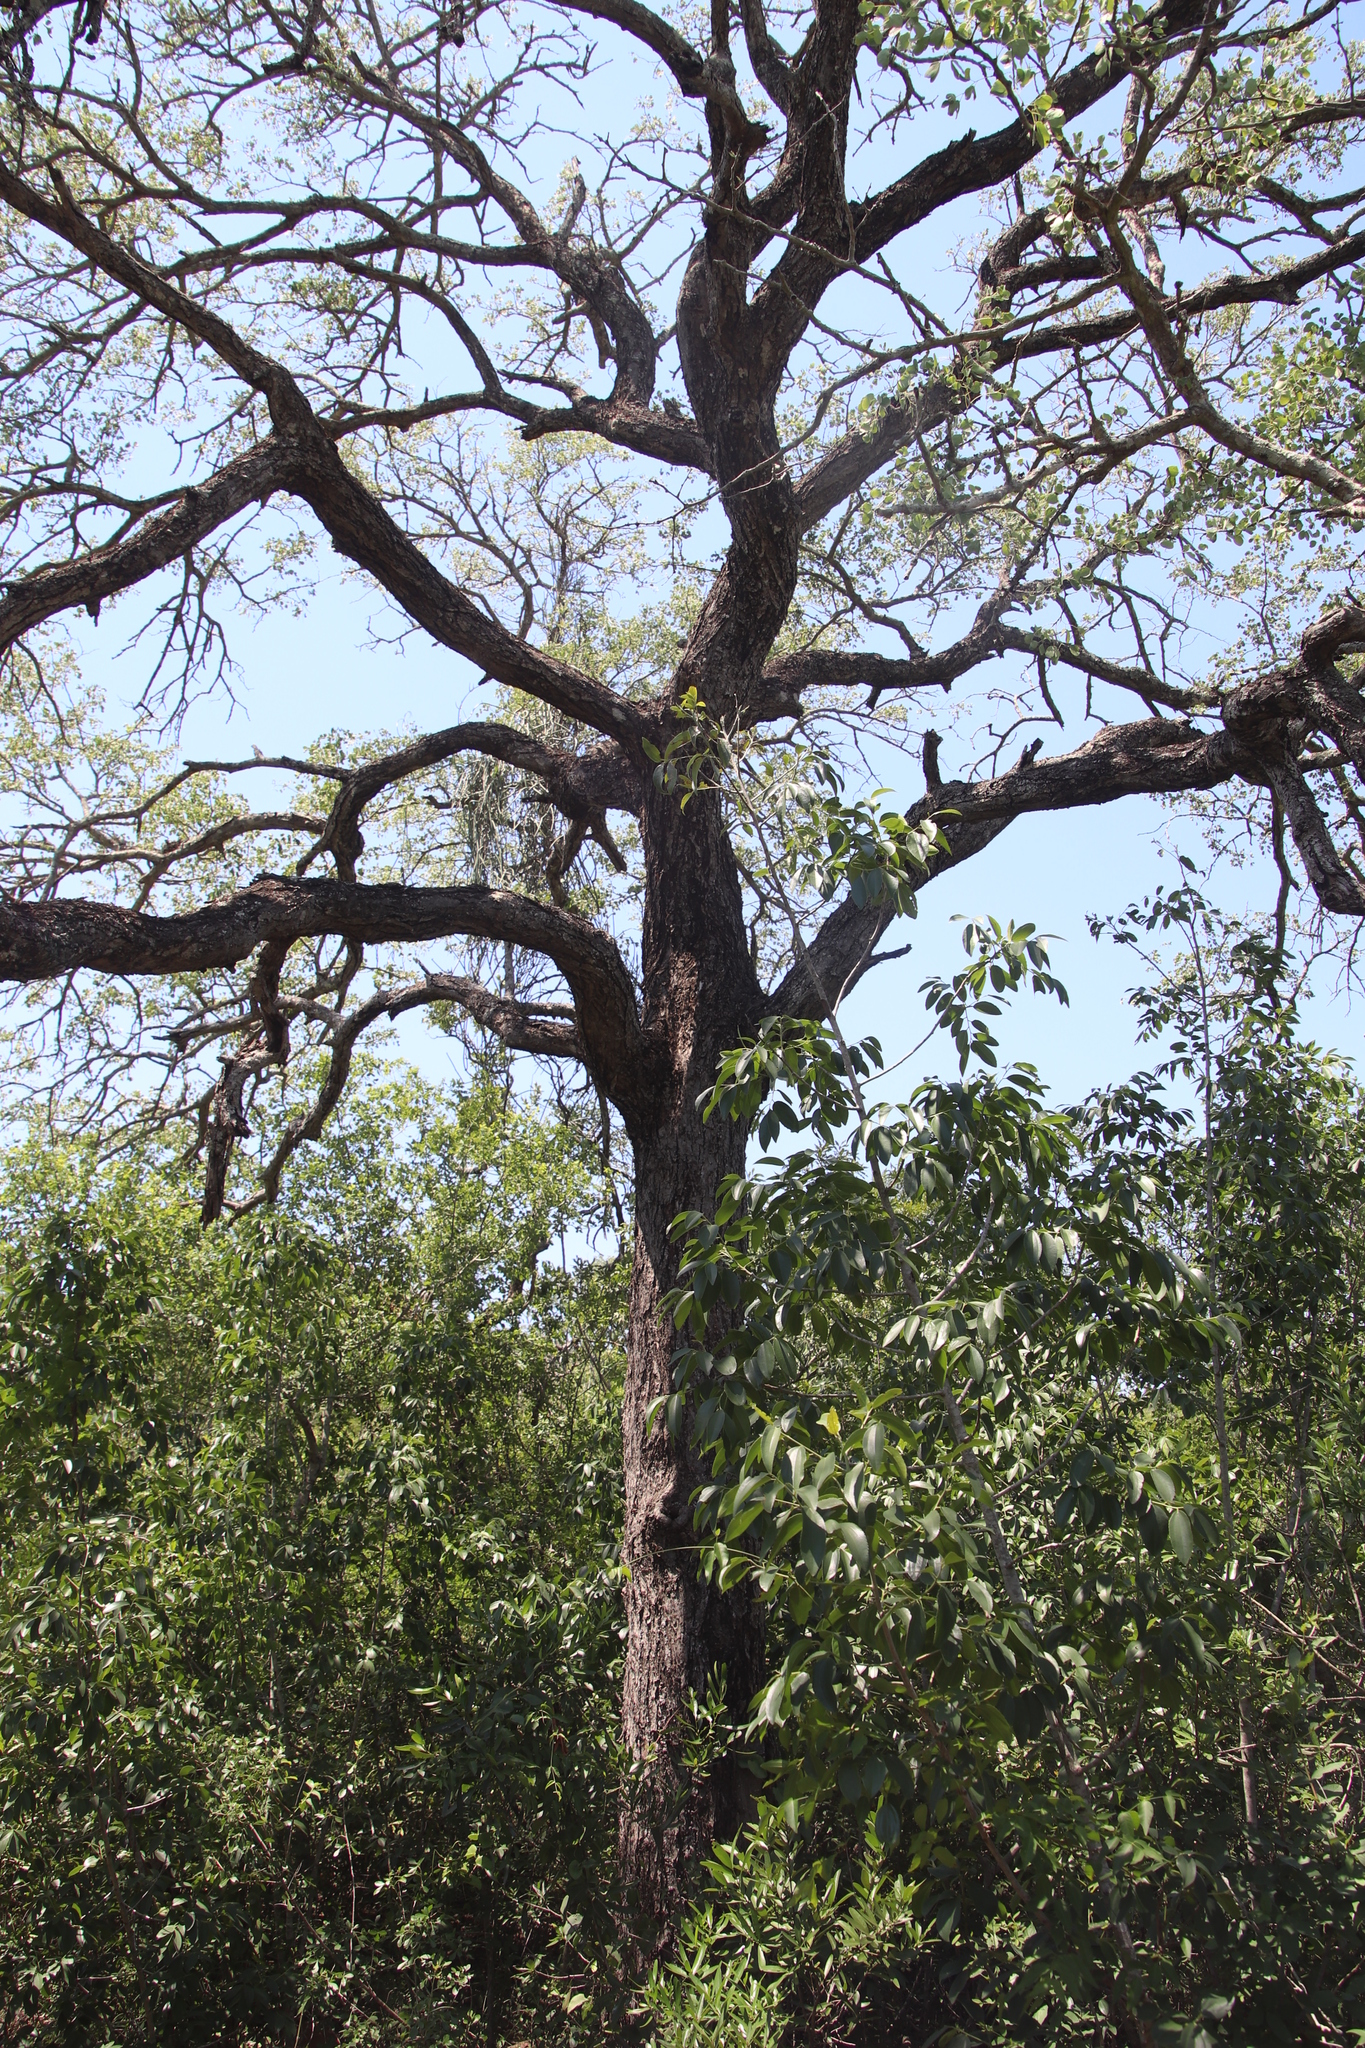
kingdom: Plantae
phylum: Tracheophyta
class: Magnoliopsida
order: Gentianales
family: Apocynaceae
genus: Cynanchum
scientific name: Cynanchum viminale
